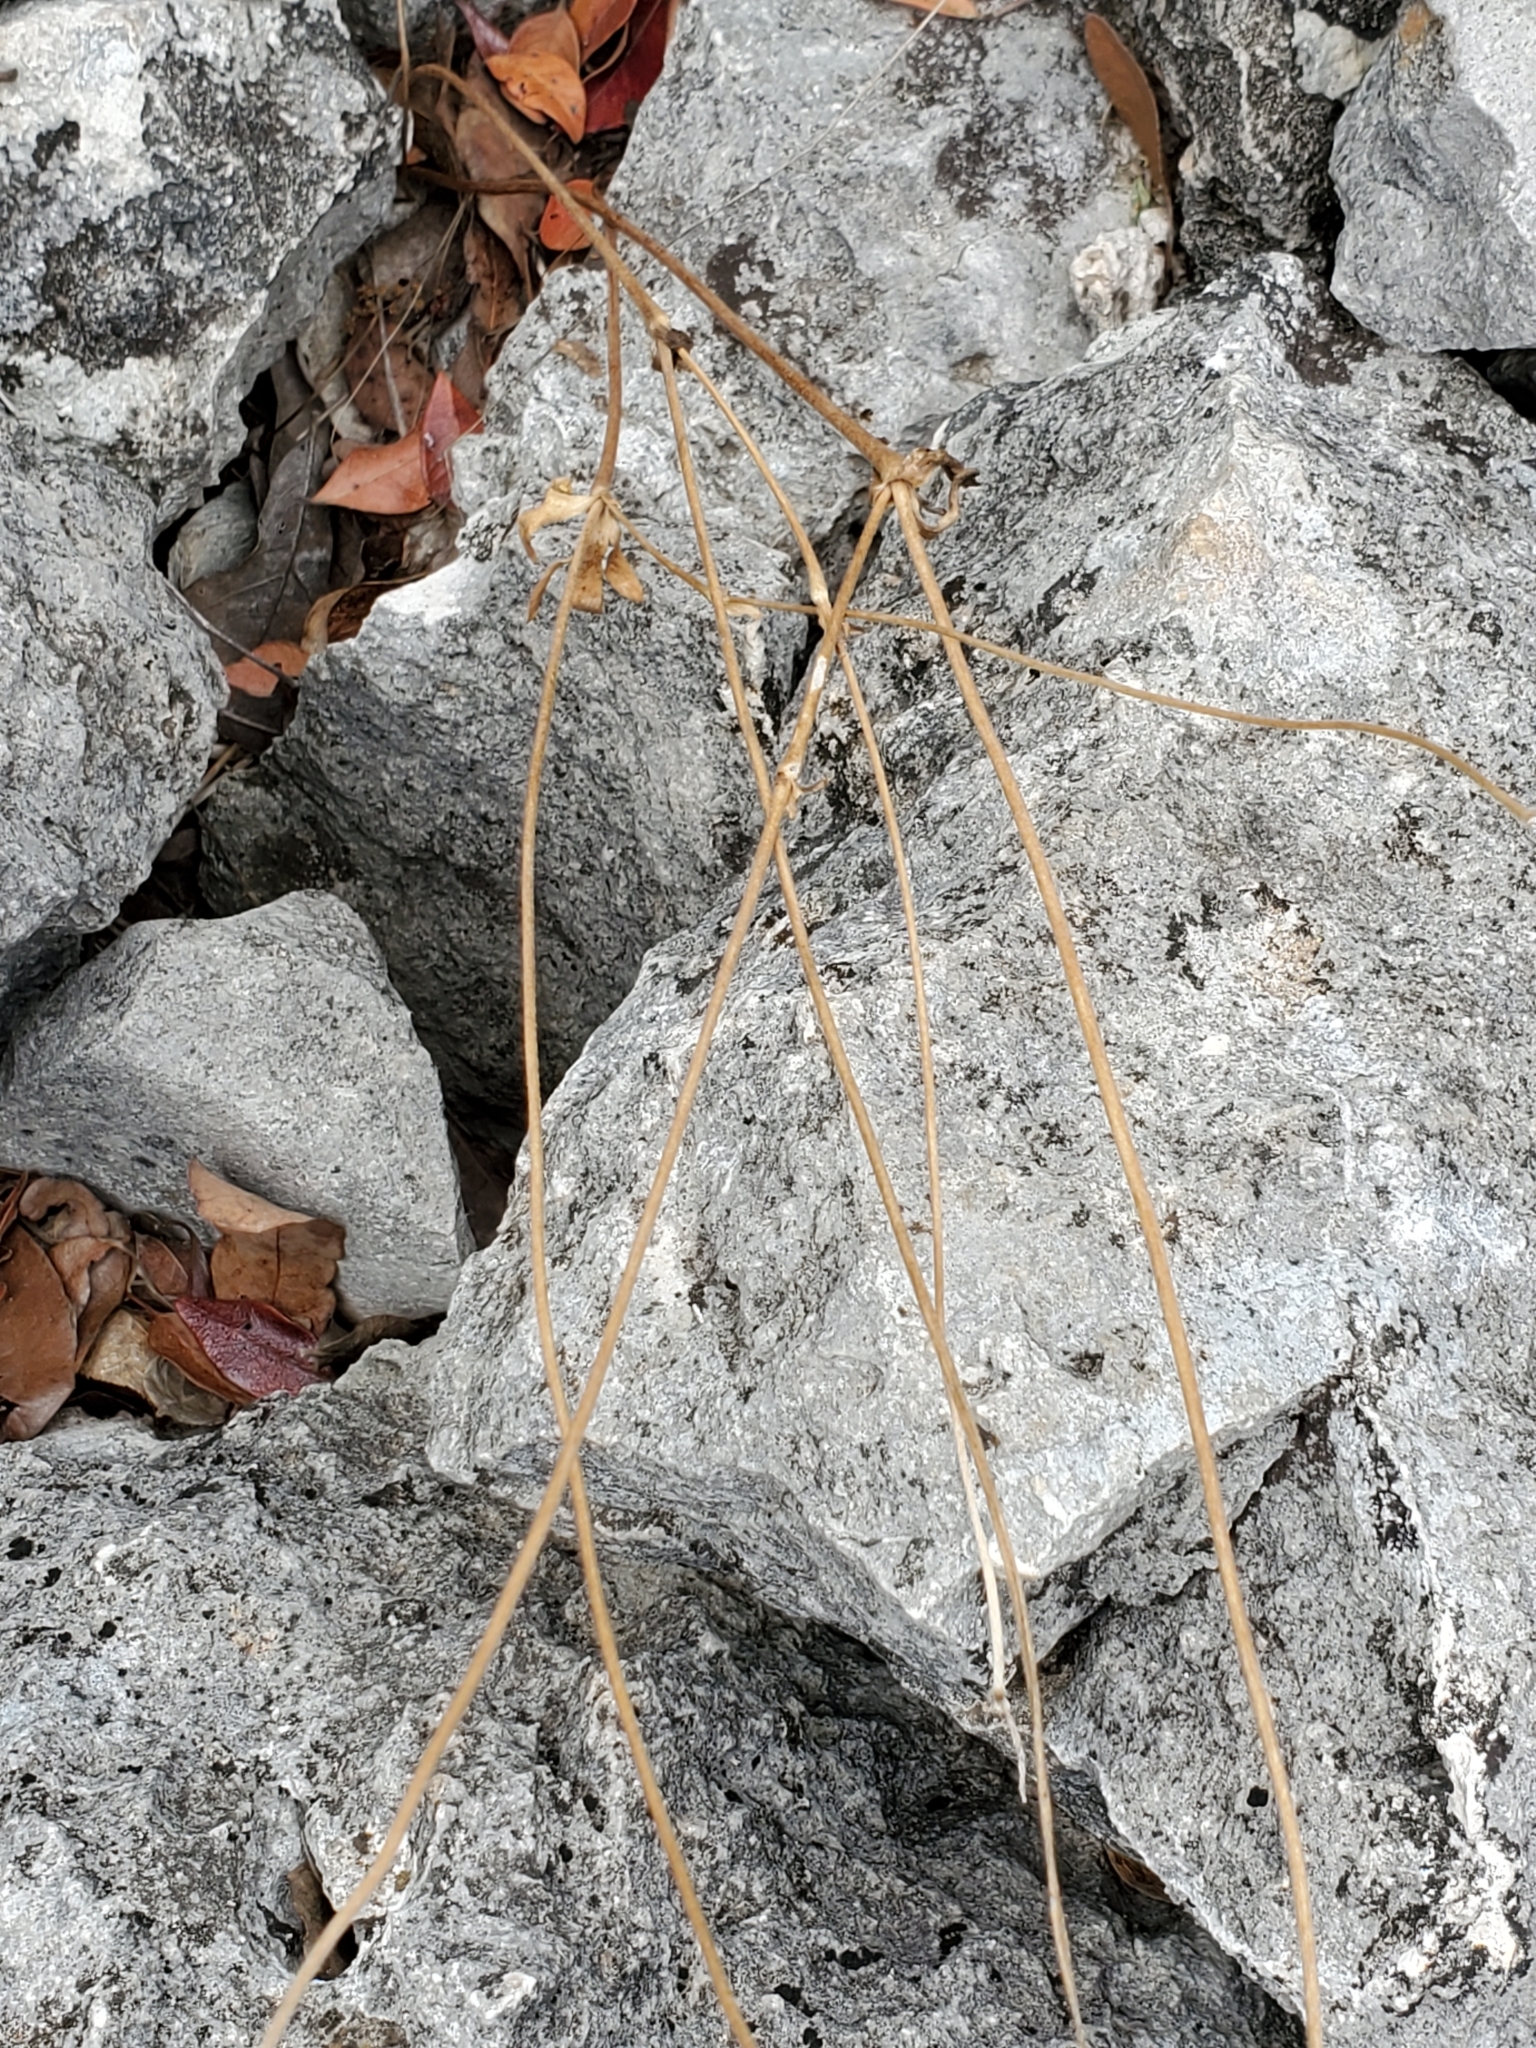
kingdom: Plantae
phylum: Tracheophyta
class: Magnoliopsida
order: Ranunculales
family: Ranunculaceae
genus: Anemone
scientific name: Anemone edwardsiana
